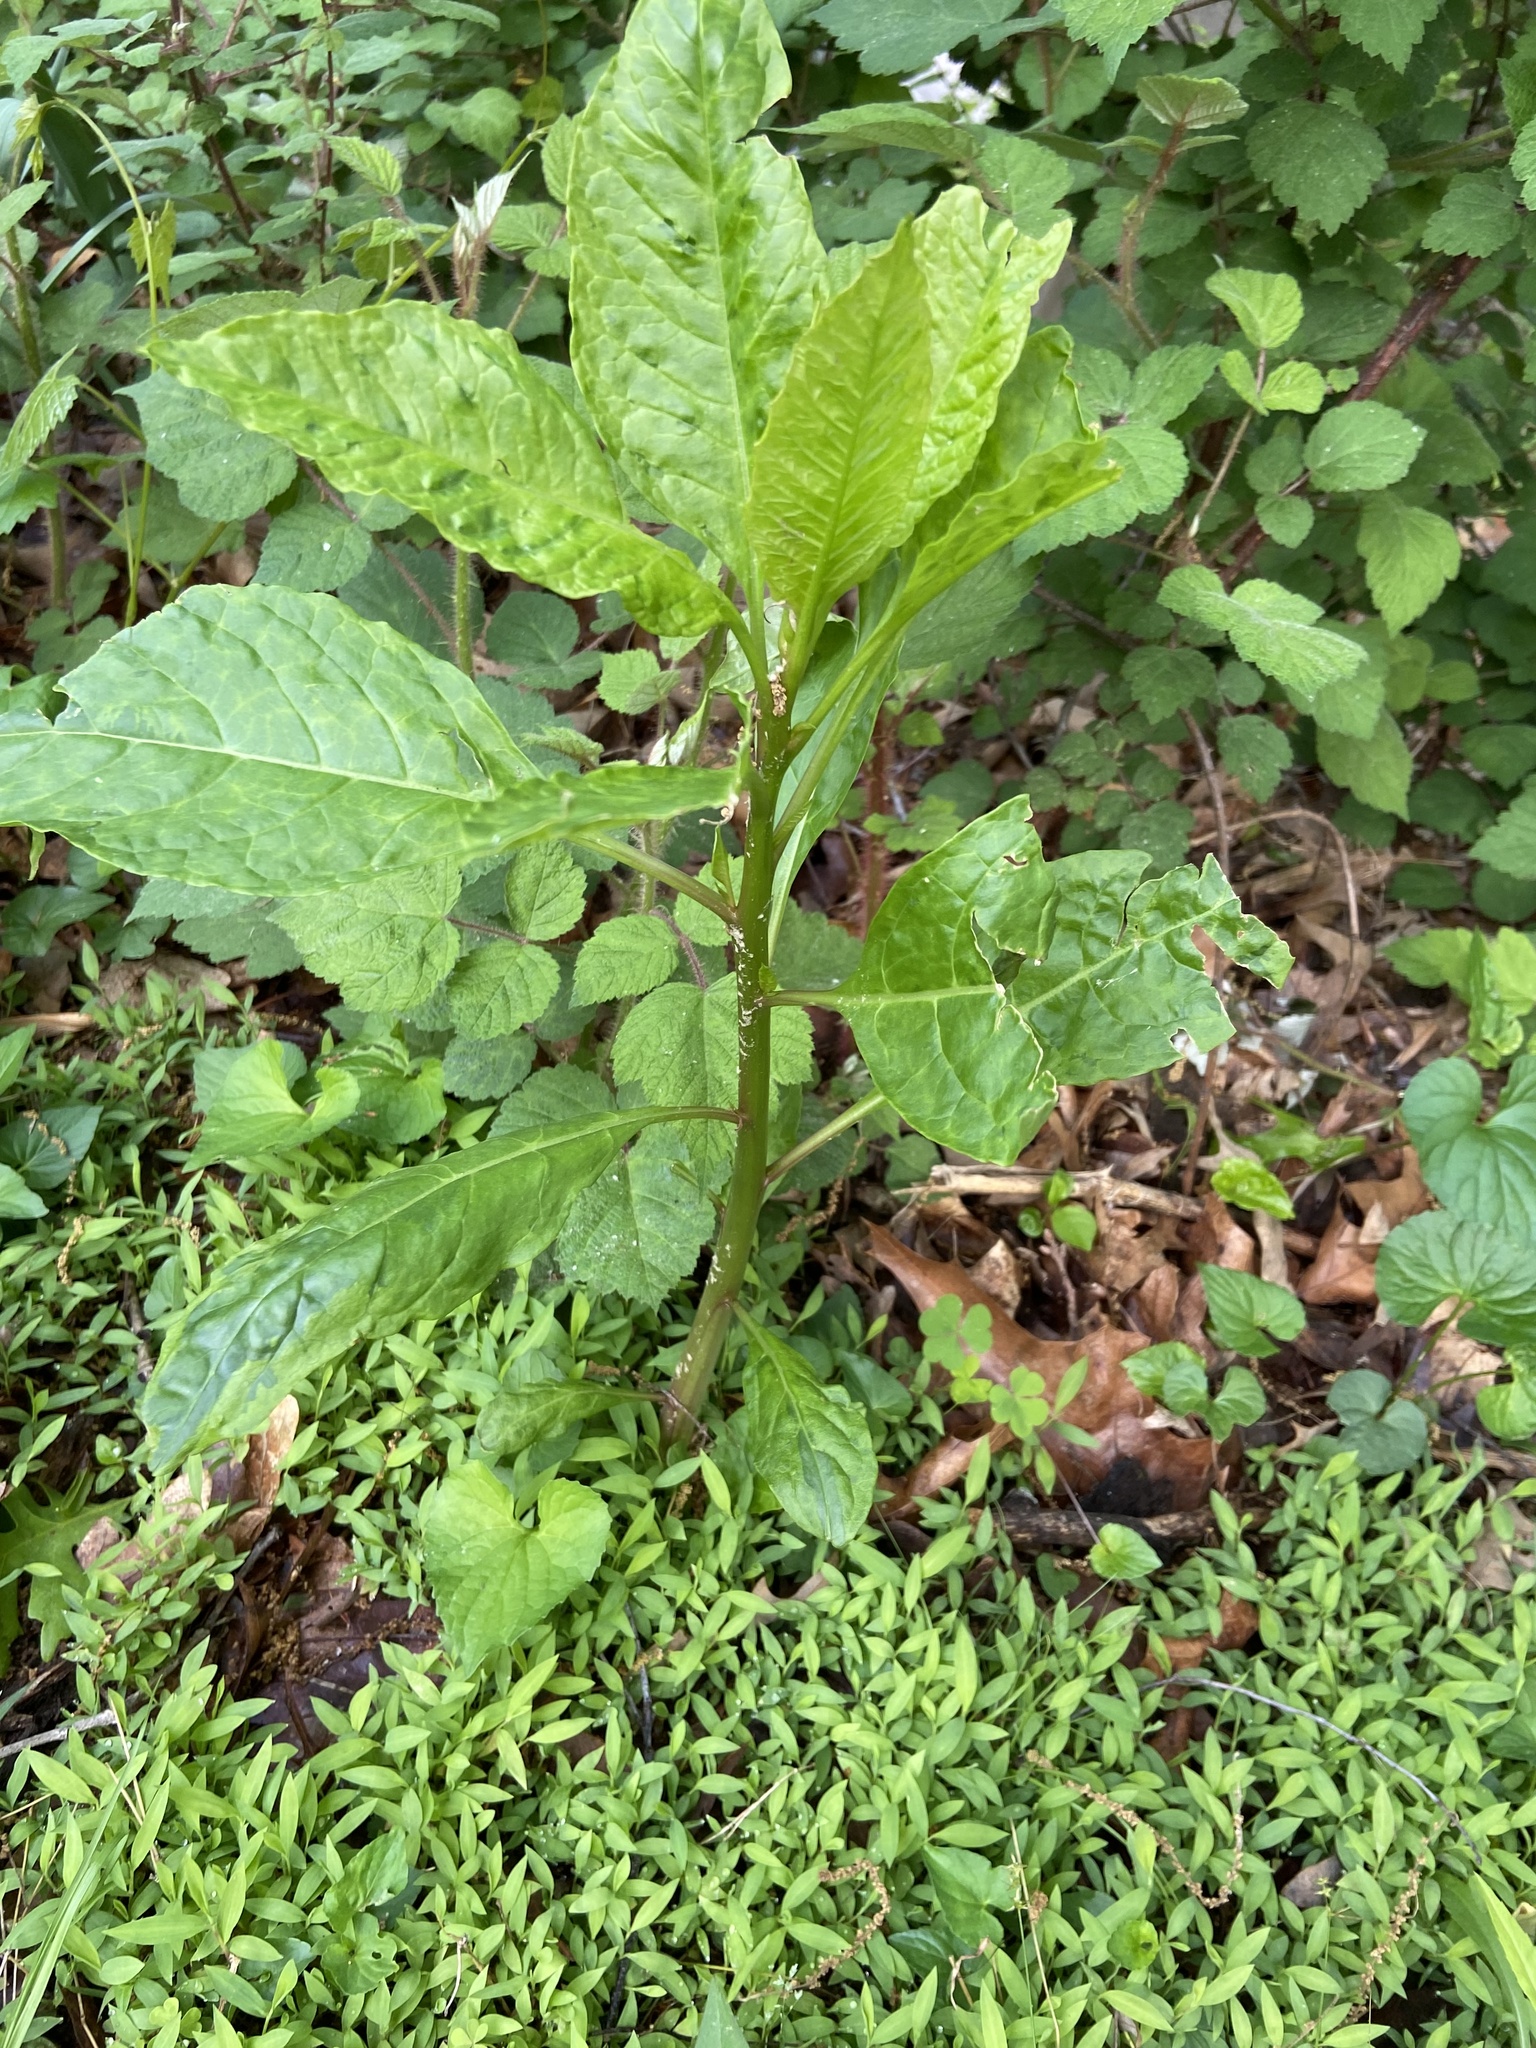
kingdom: Plantae
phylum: Tracheophyta
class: Magnoliopsida
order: Caryophyllales
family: Phytolaccaceae
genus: Phytolacca
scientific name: Phytolacca americana
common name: American pokeweed
